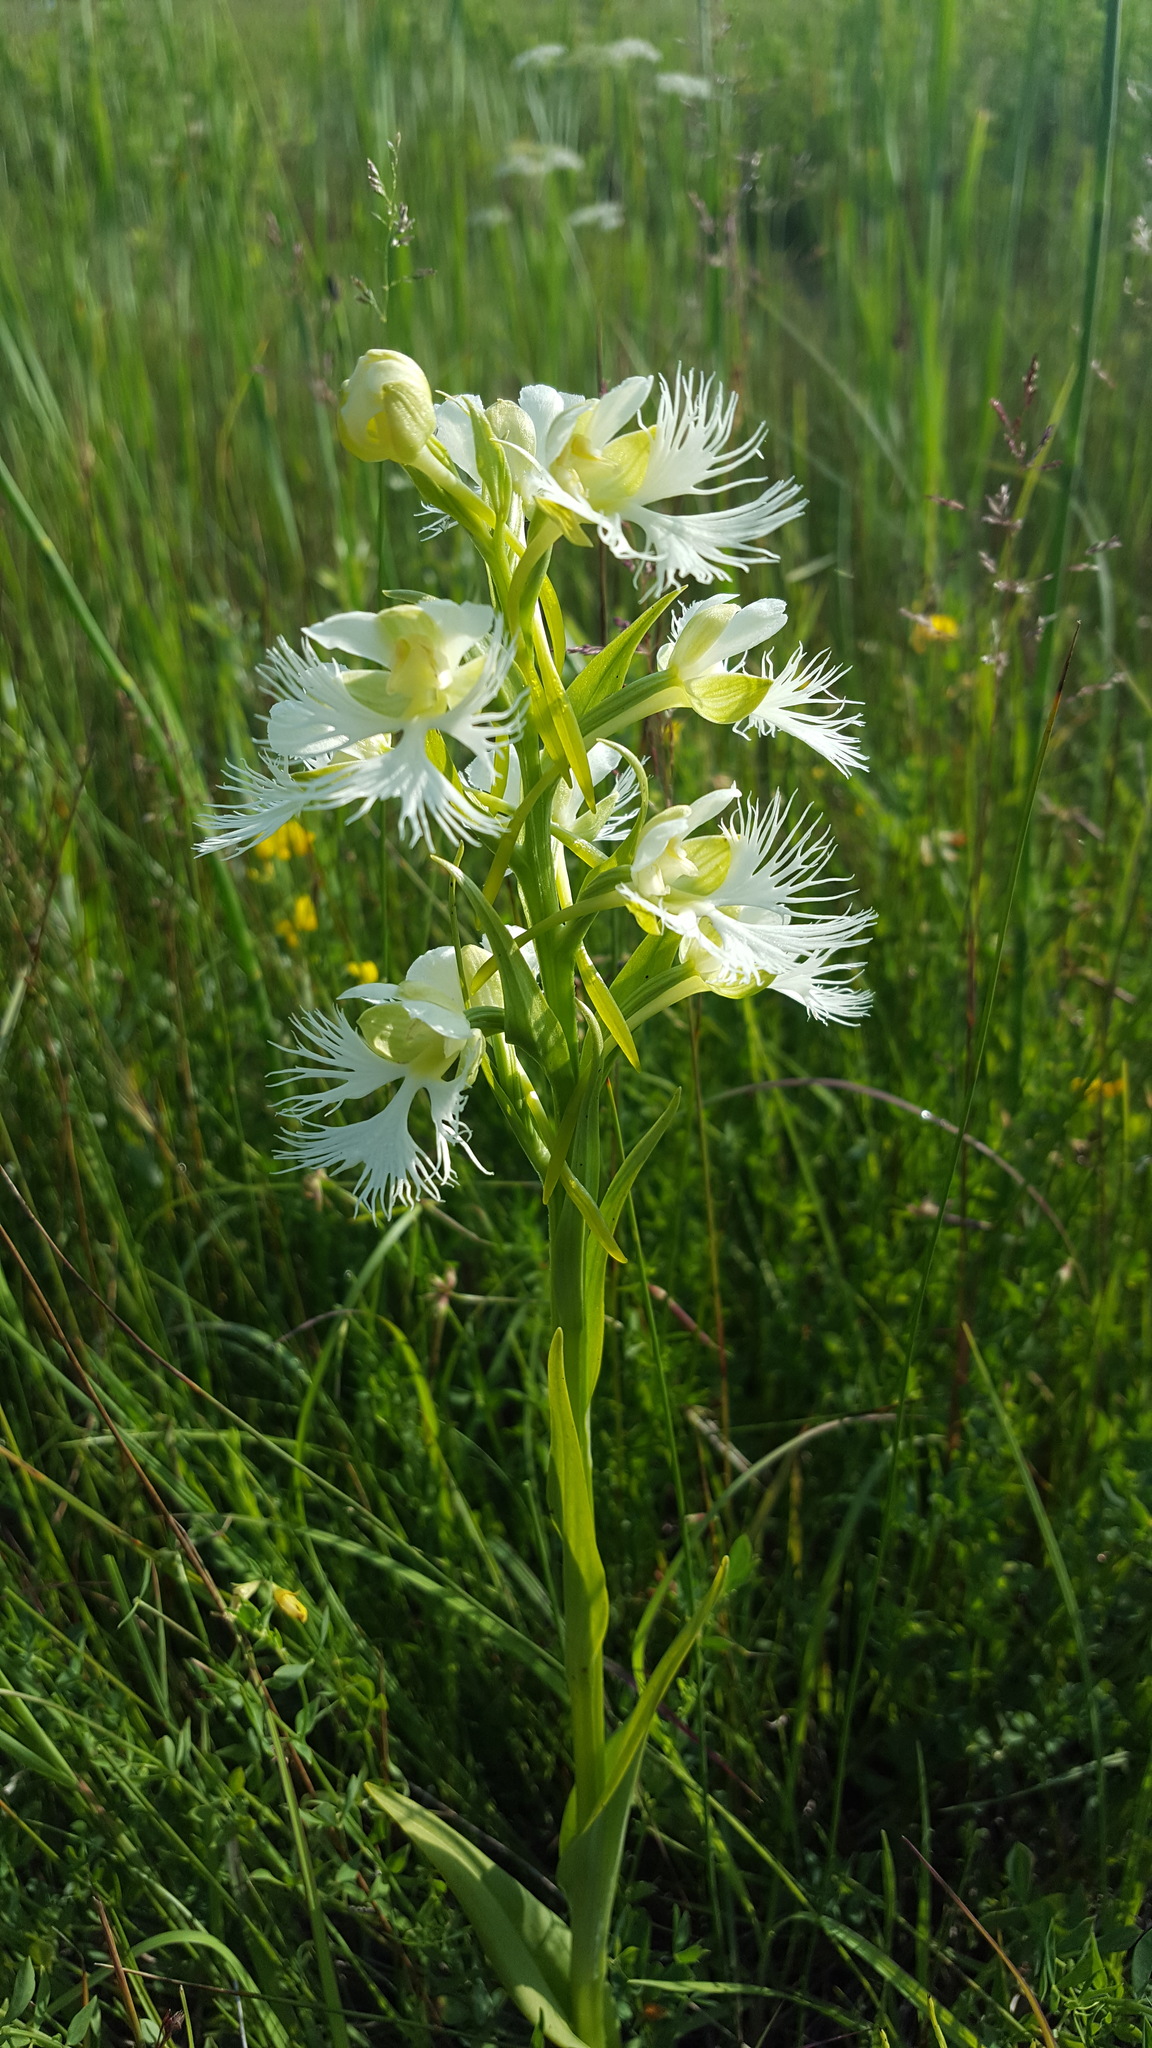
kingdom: Plantae
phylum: Tracheophyta
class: Liliopsida
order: Asparagales
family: Orchidaceae
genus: Platanthera
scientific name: Platanthera praeclara
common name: Western prairie fringed orchid
